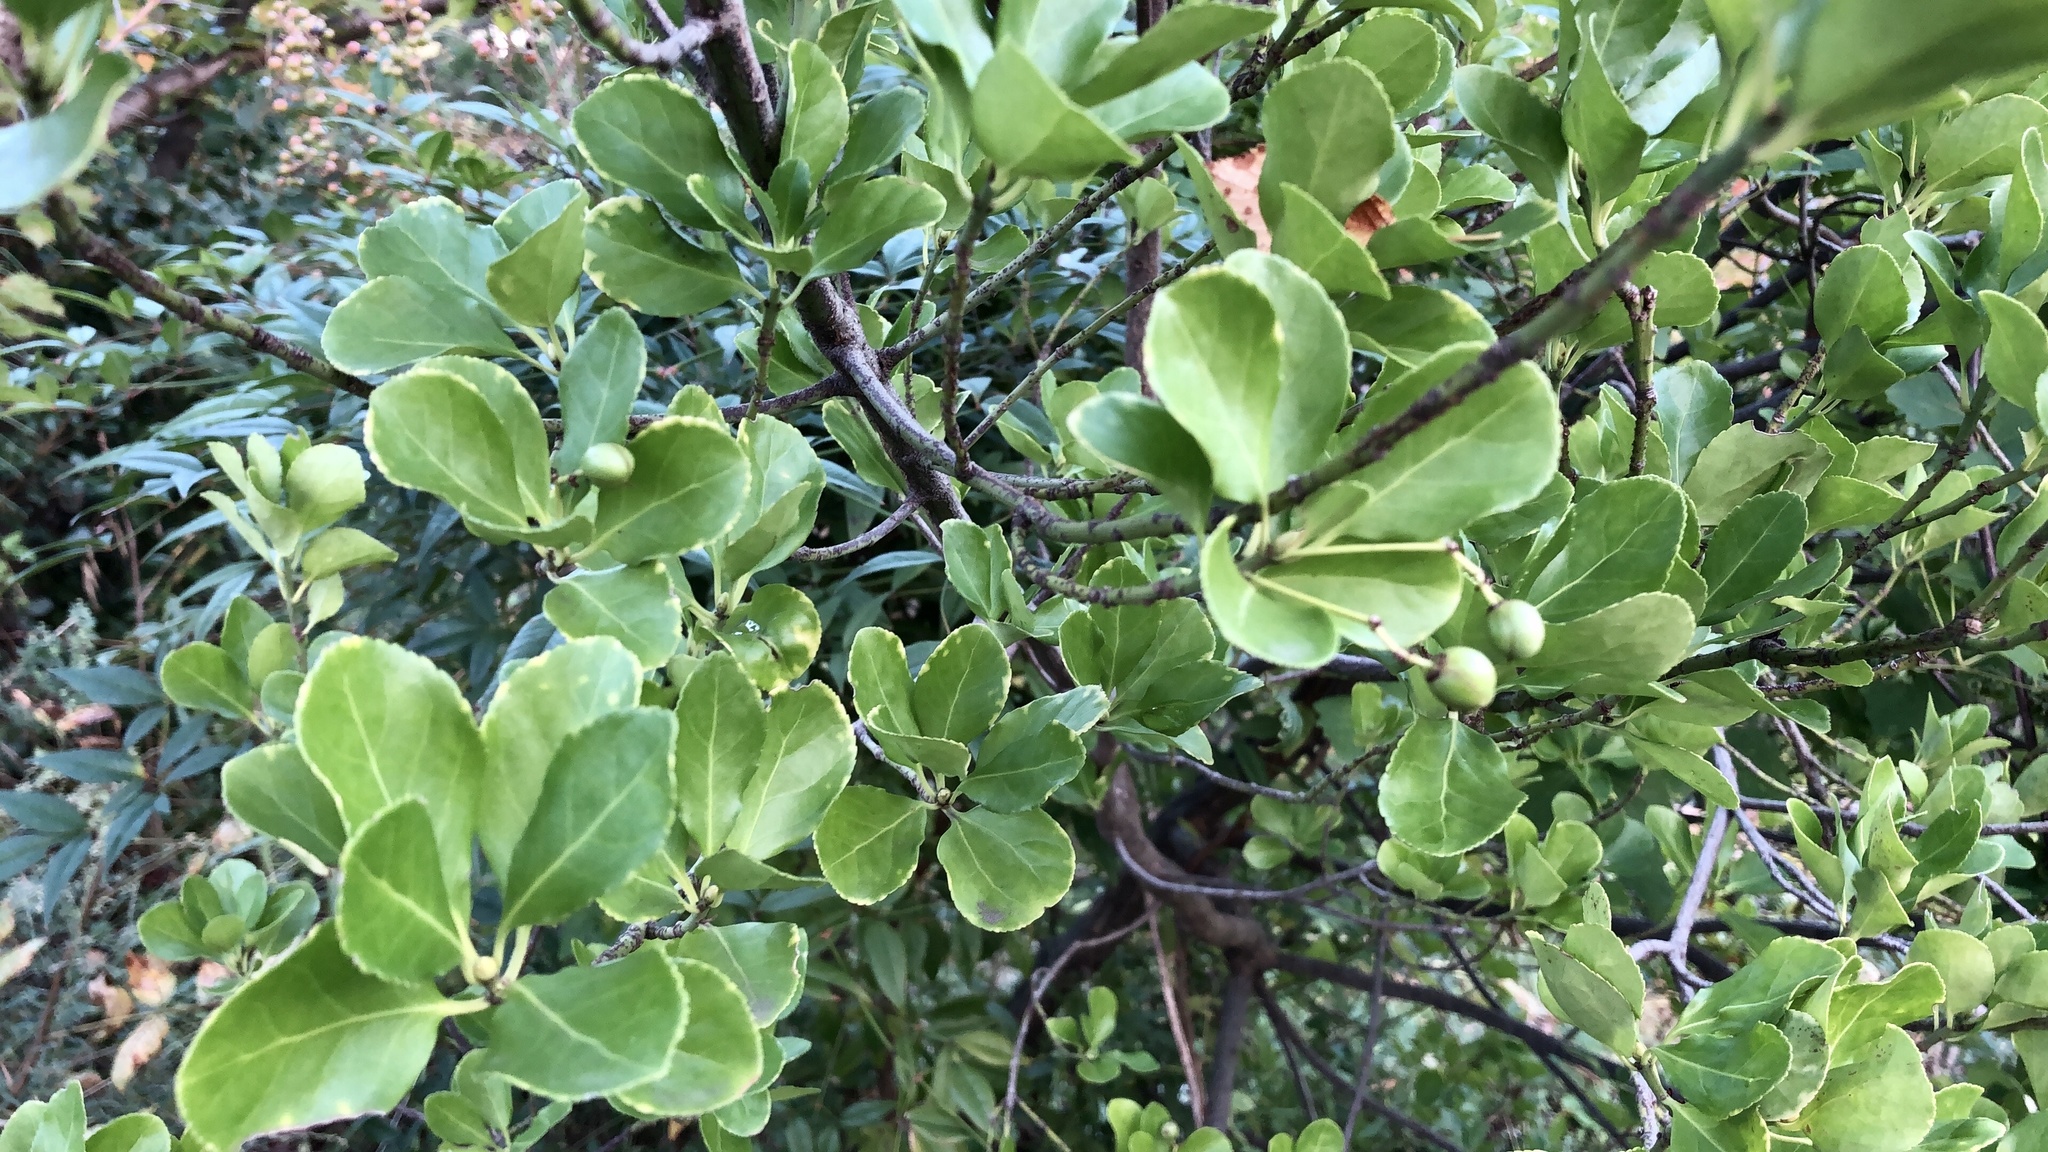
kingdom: Plantae
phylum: Tracheophyta
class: Magnoliopsida
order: Celastrales
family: Celastraceae
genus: Euonymus
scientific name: Euonymus japonicus
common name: Japanese spindletree
